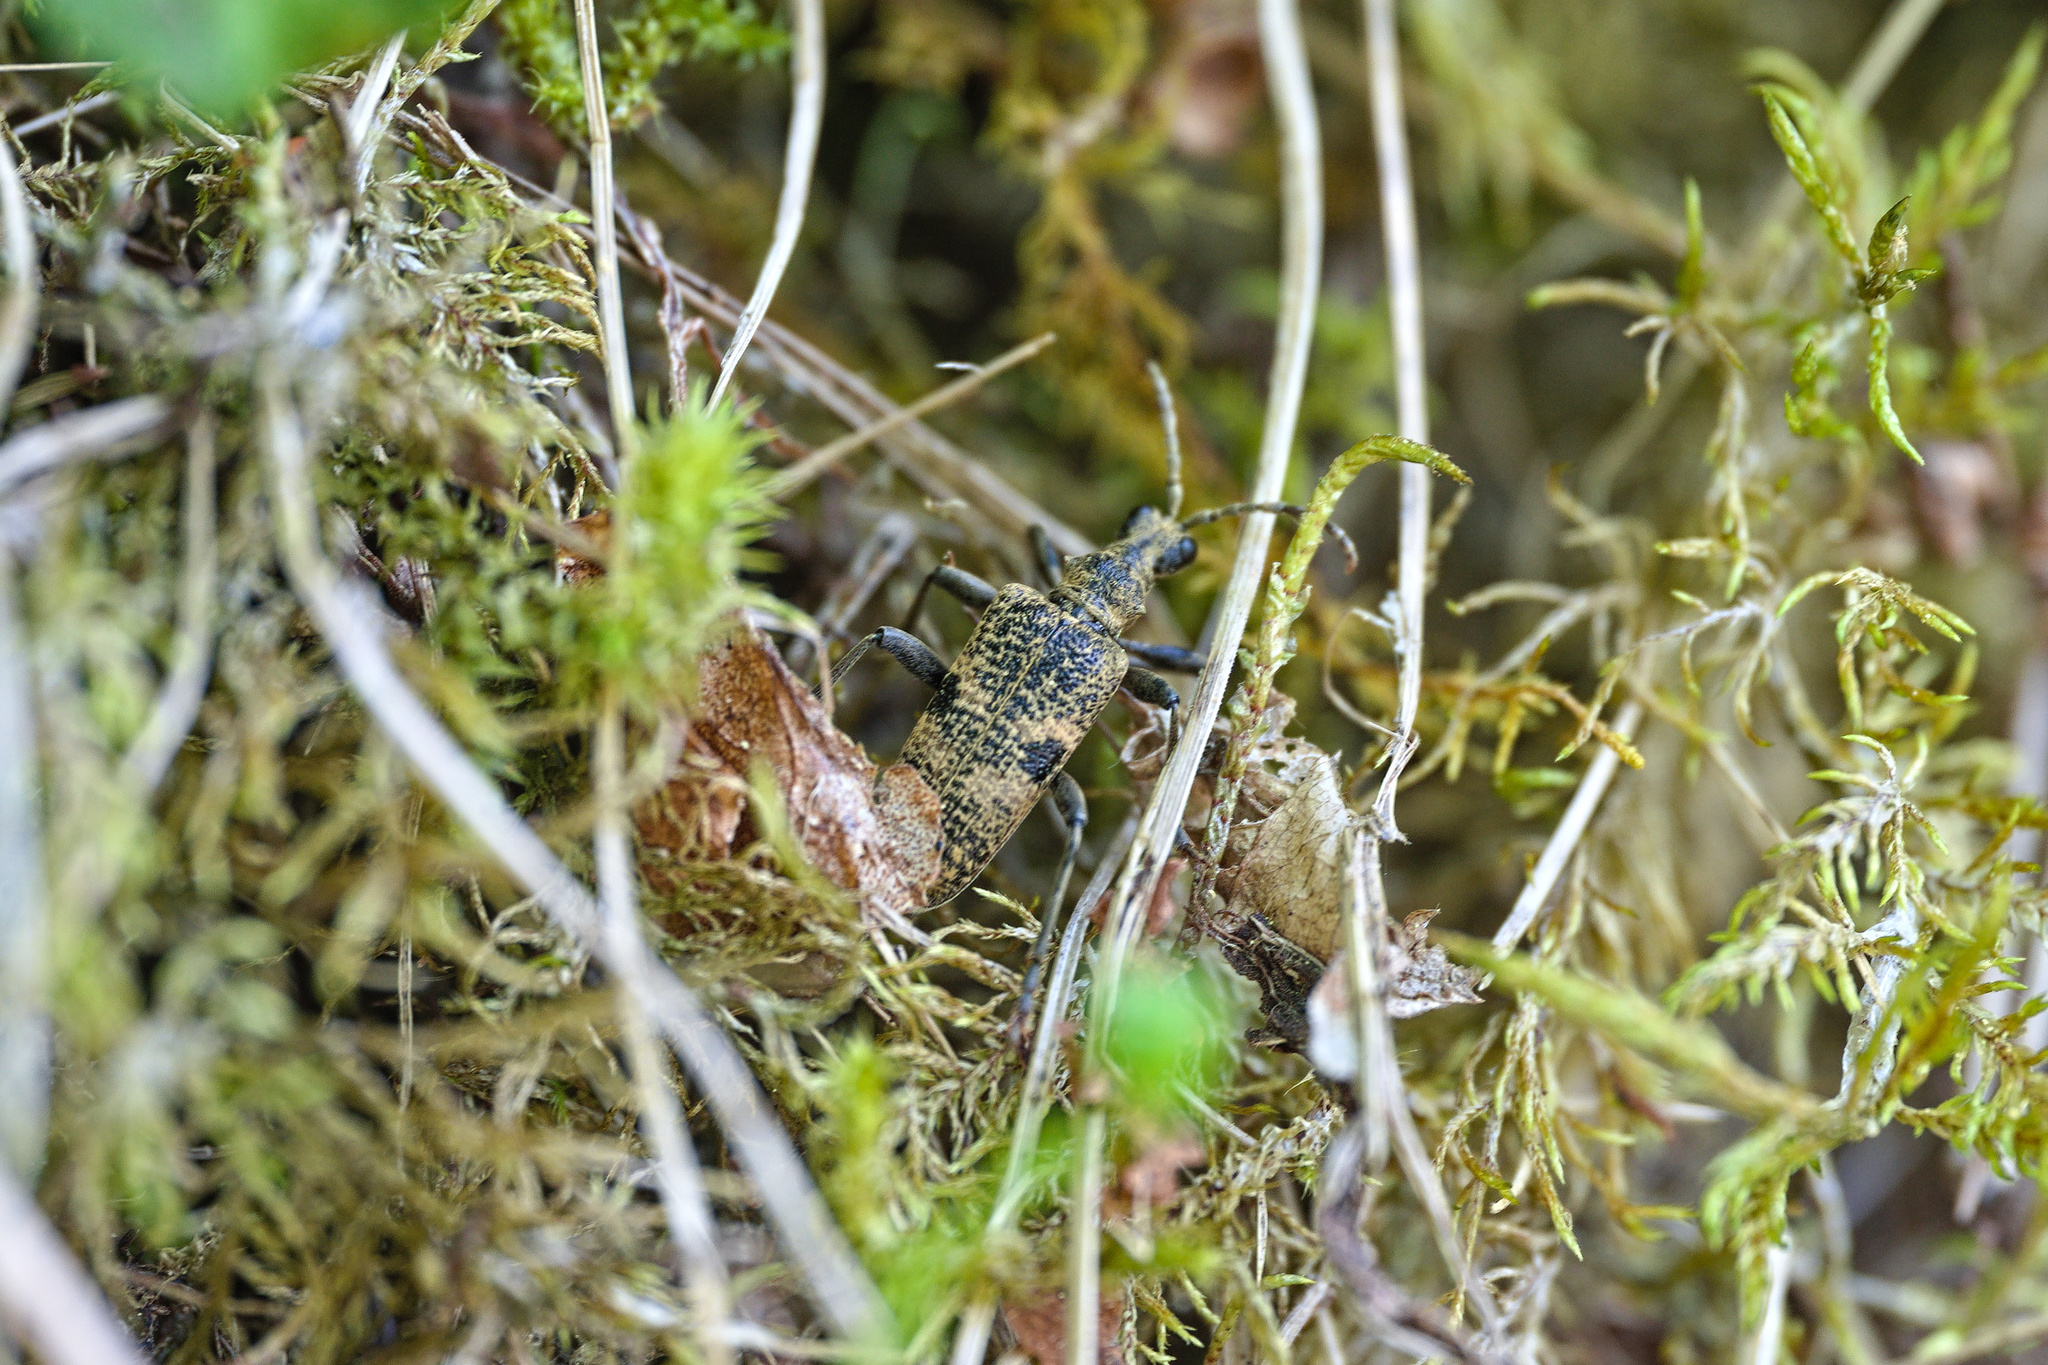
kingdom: Animalia
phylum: Arthropoda
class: Insecta
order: Coleoptera
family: Cerambycidae
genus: Rhagium
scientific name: Rhagium mordax
